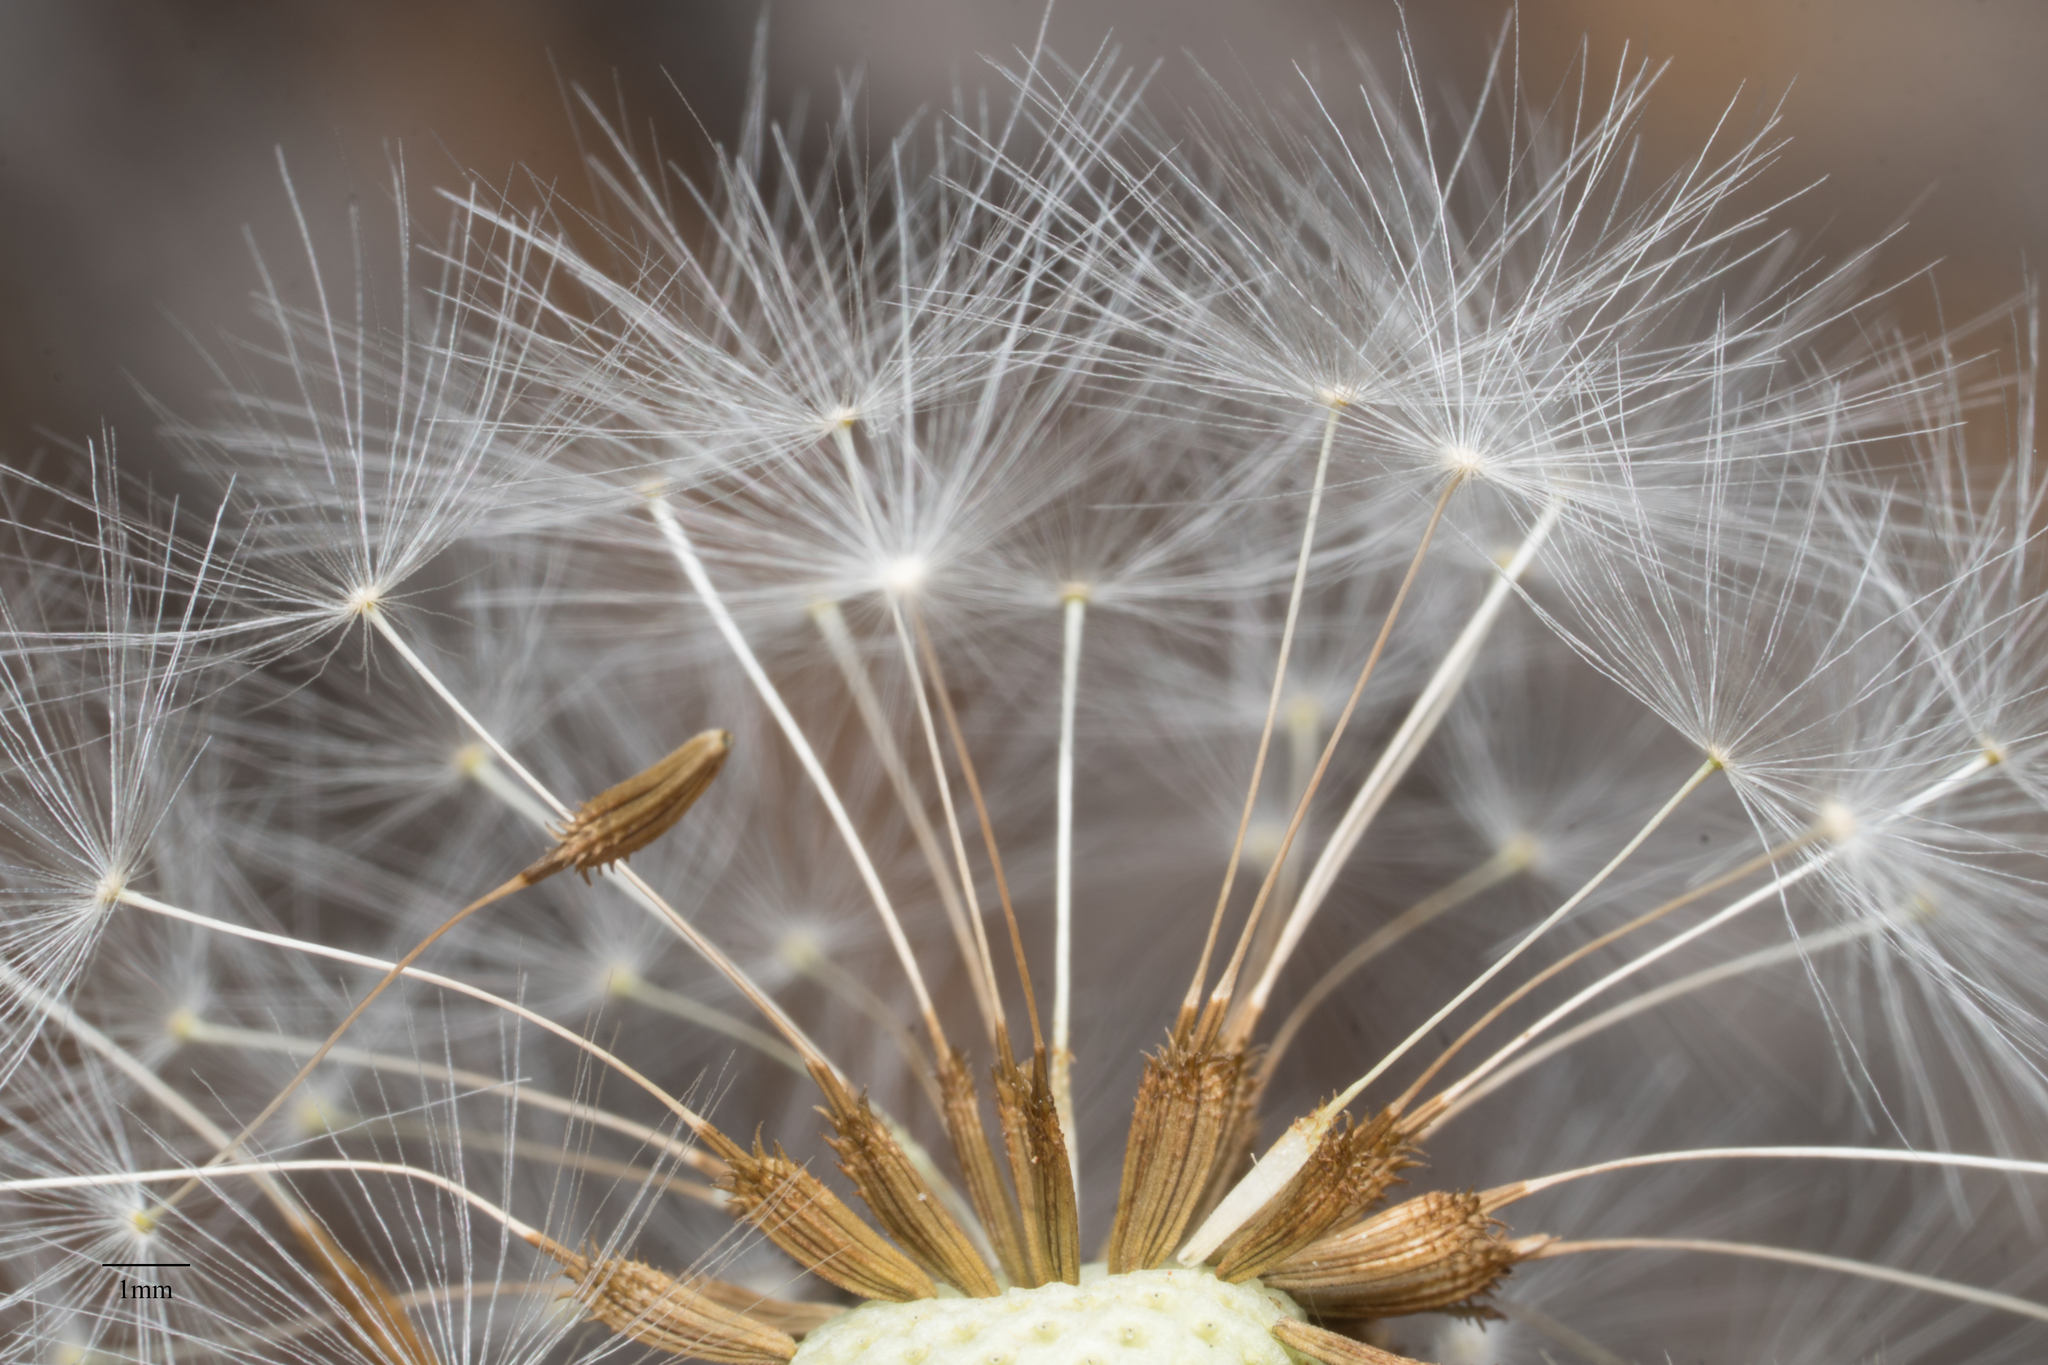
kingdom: Plantae
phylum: Tracheophyta
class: Magnoliopsida
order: Asterales
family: Asteraceae
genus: Taraxacum
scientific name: Taraxacum officinale
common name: Common dandelion
